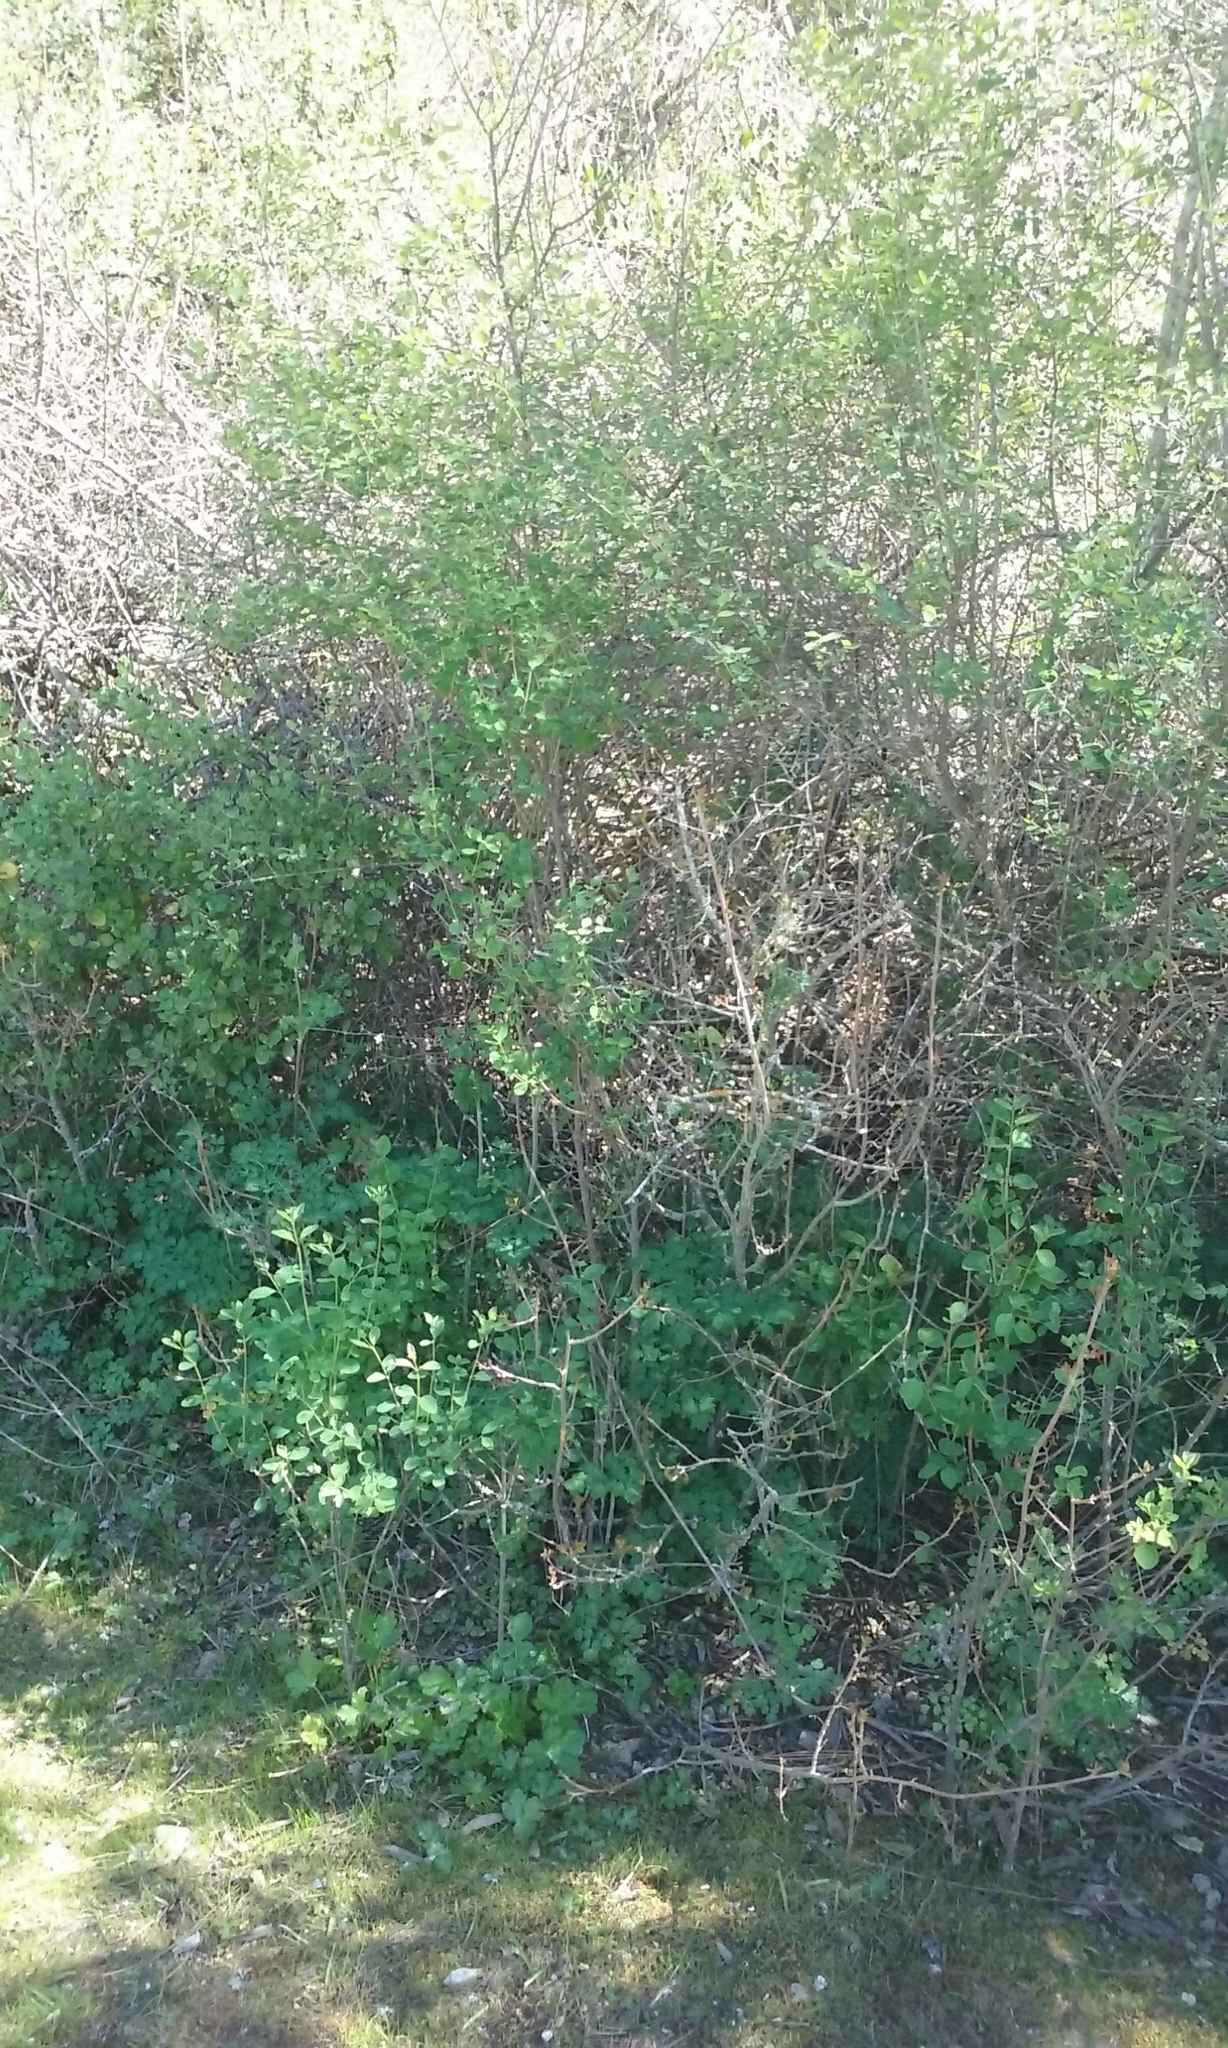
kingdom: Plantae
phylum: Tracheophyta
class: Magnoliopsida
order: Dipsacales
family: Caprifoliaceae
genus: Symphoricarpos
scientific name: Symphoricarpos albus
